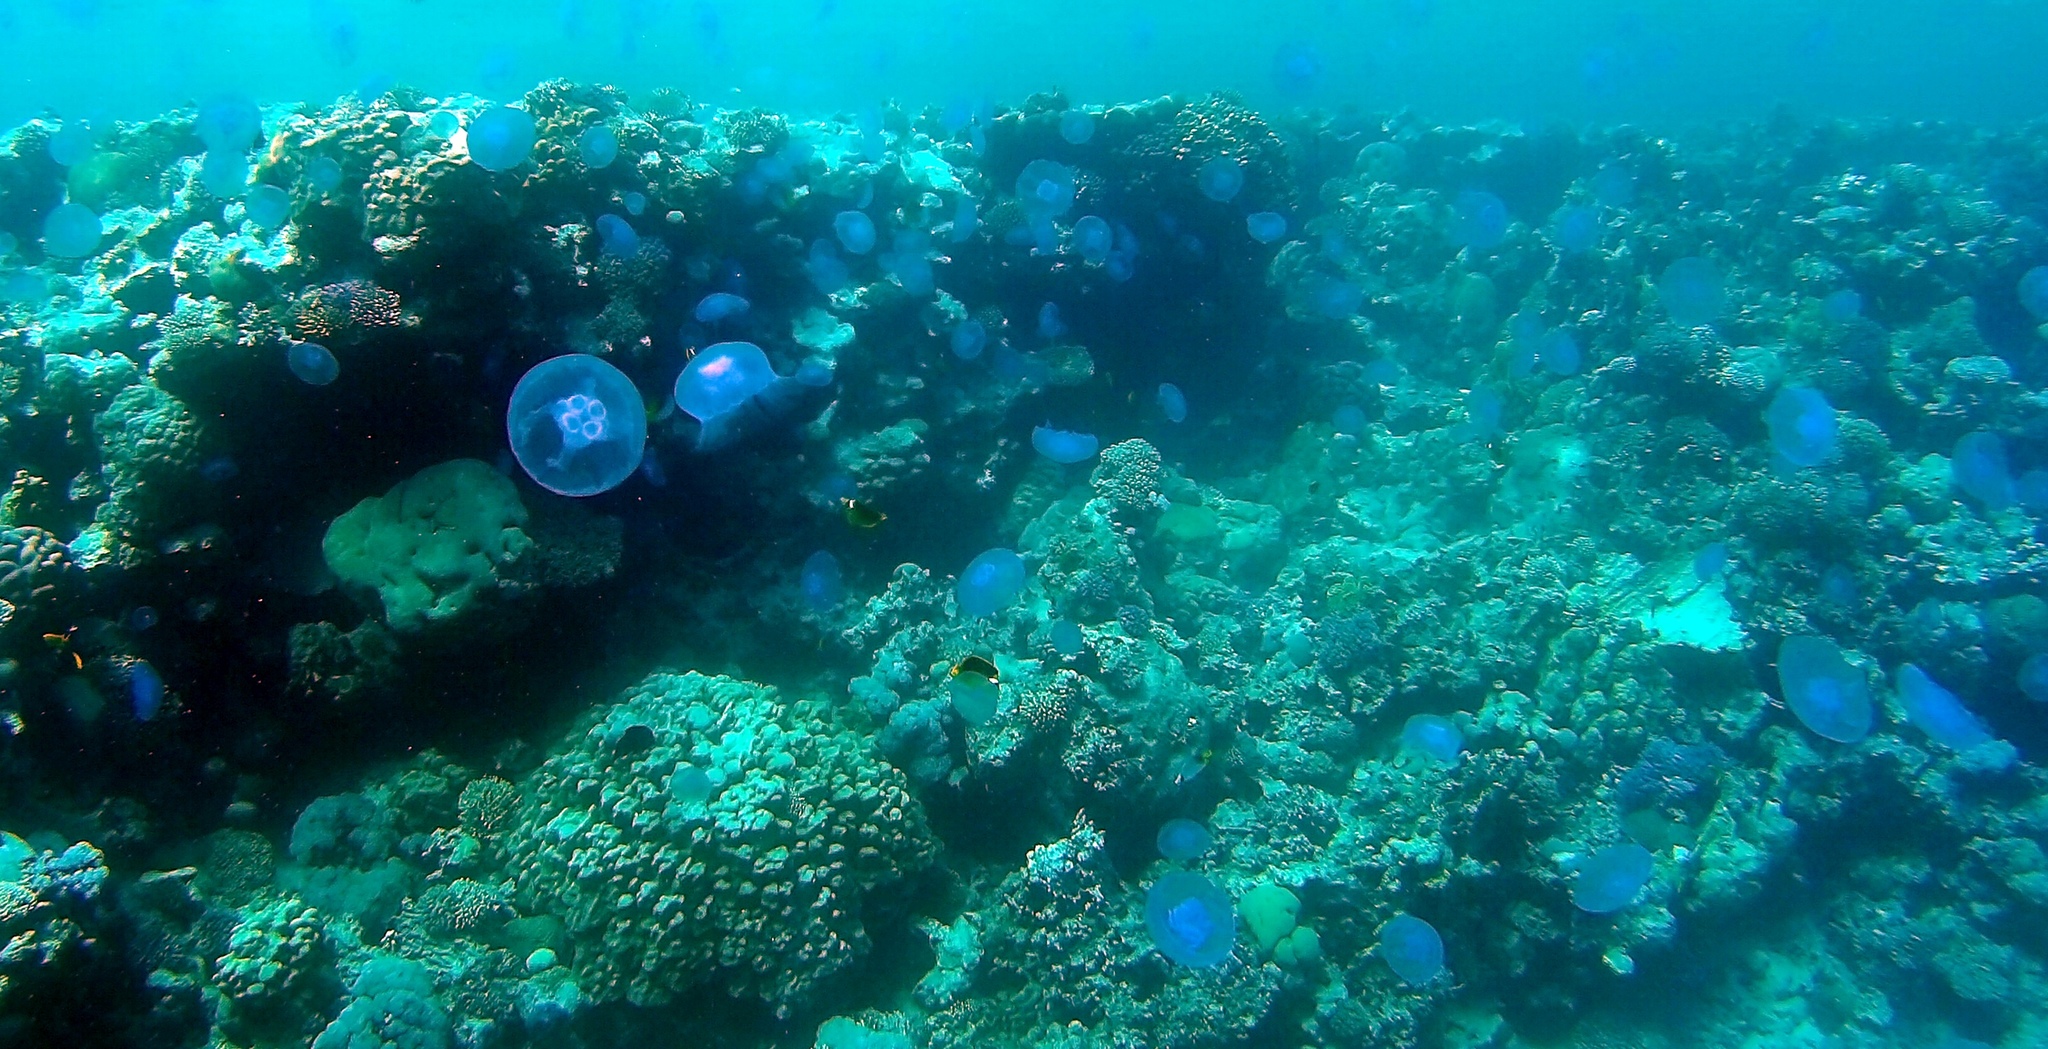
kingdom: Animalia
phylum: Cnidaria
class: Scyphozoa
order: Semaeostomeae
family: Ulmaridae
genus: Aurelia
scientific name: Aurelia solida
